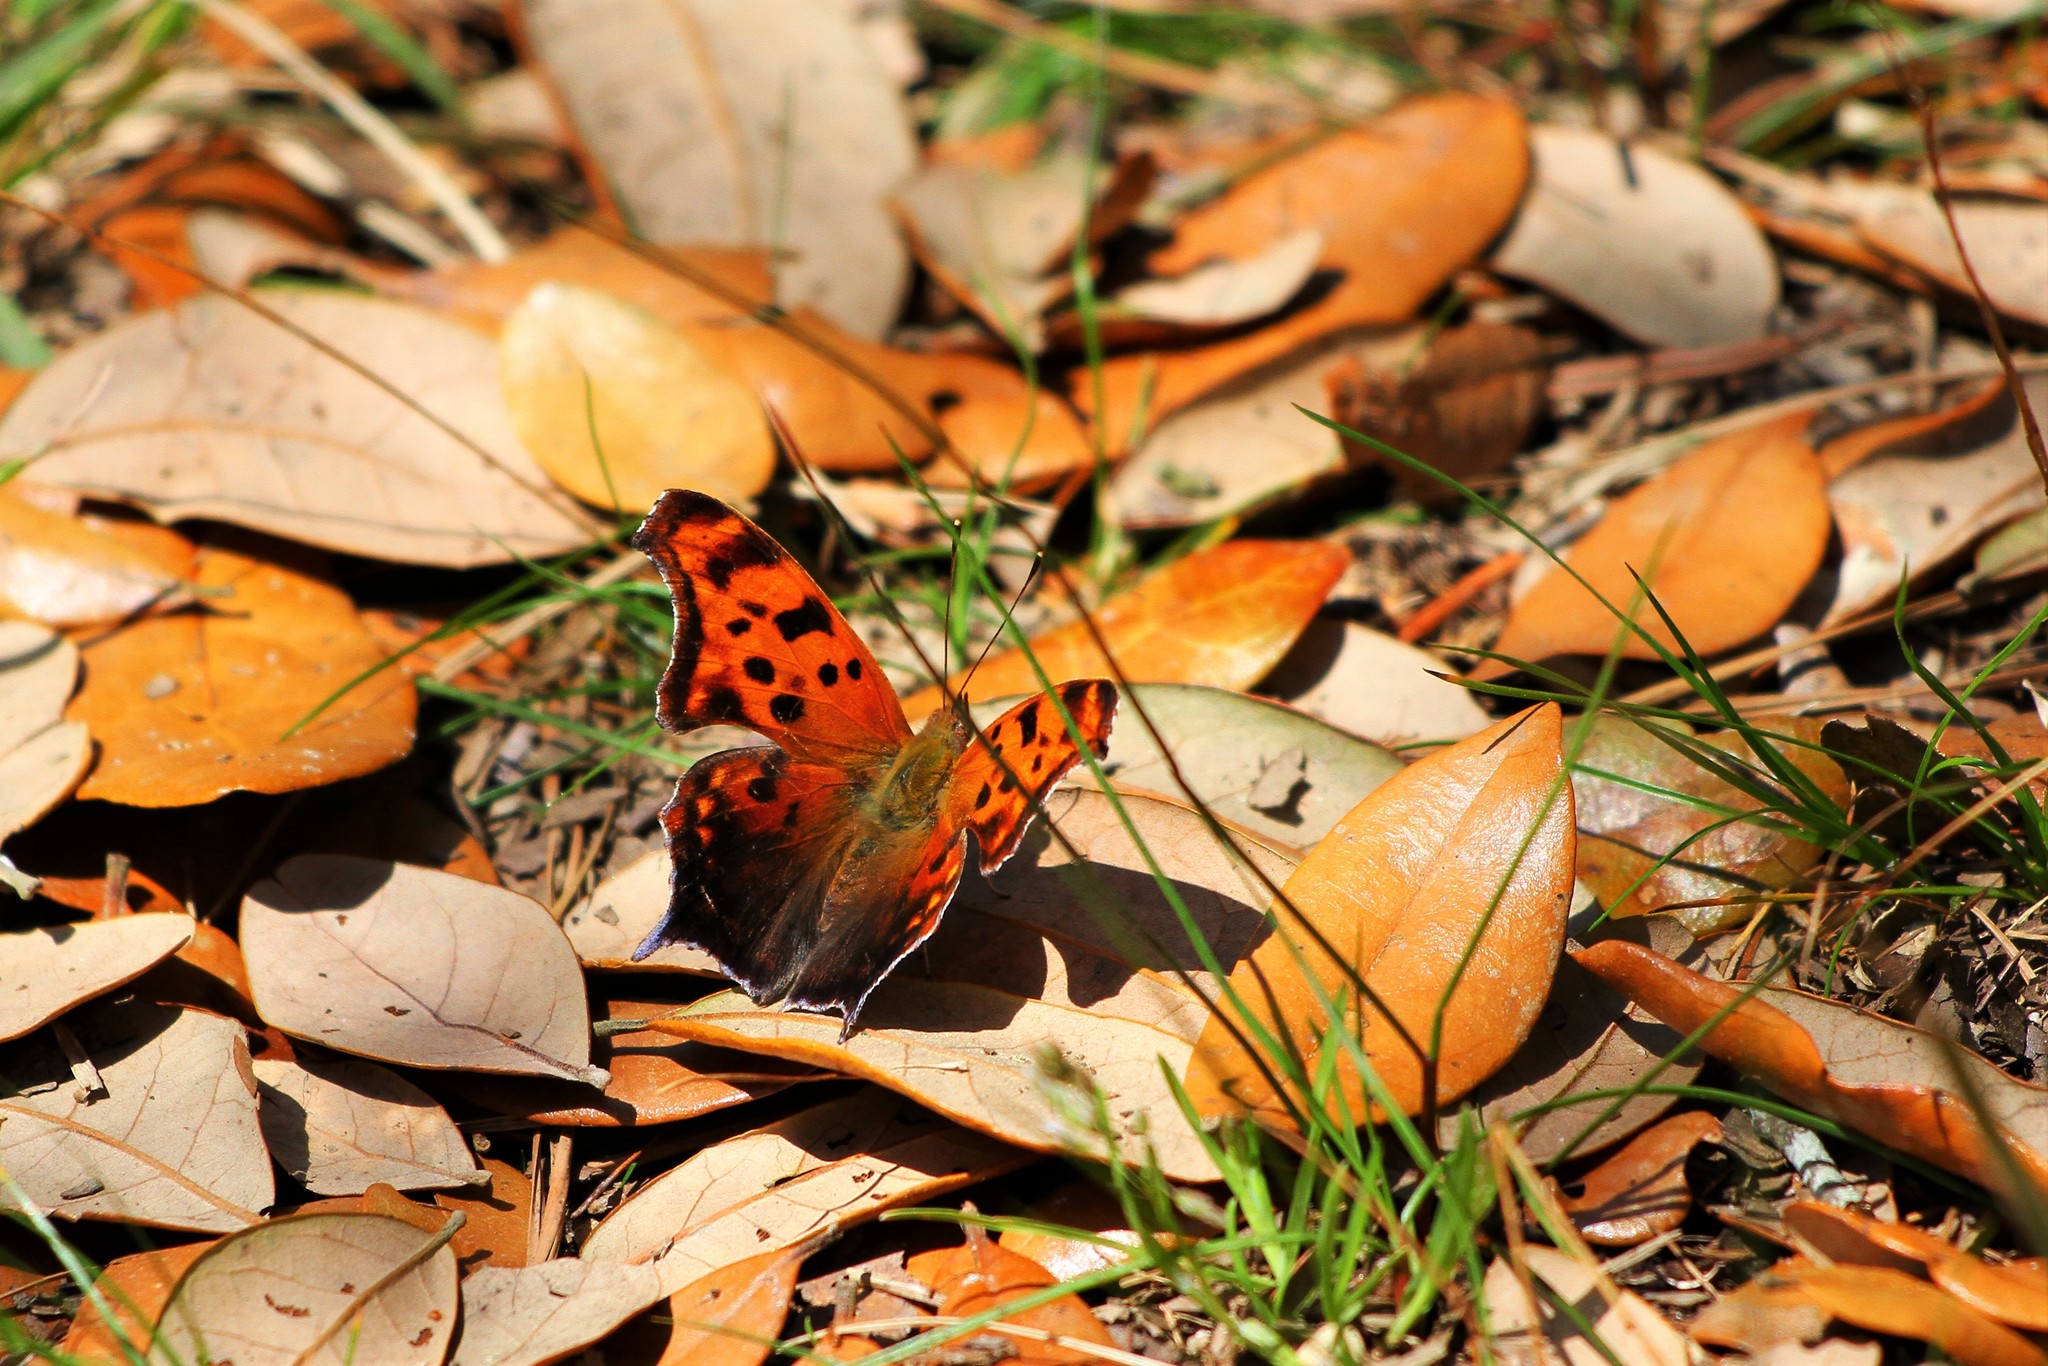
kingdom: Animalia
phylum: Arthropoda
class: Insecta
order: Lepidoptera
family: Nymphalidae
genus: Polygonia
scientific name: Polygonia interrogationis
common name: Question mark
